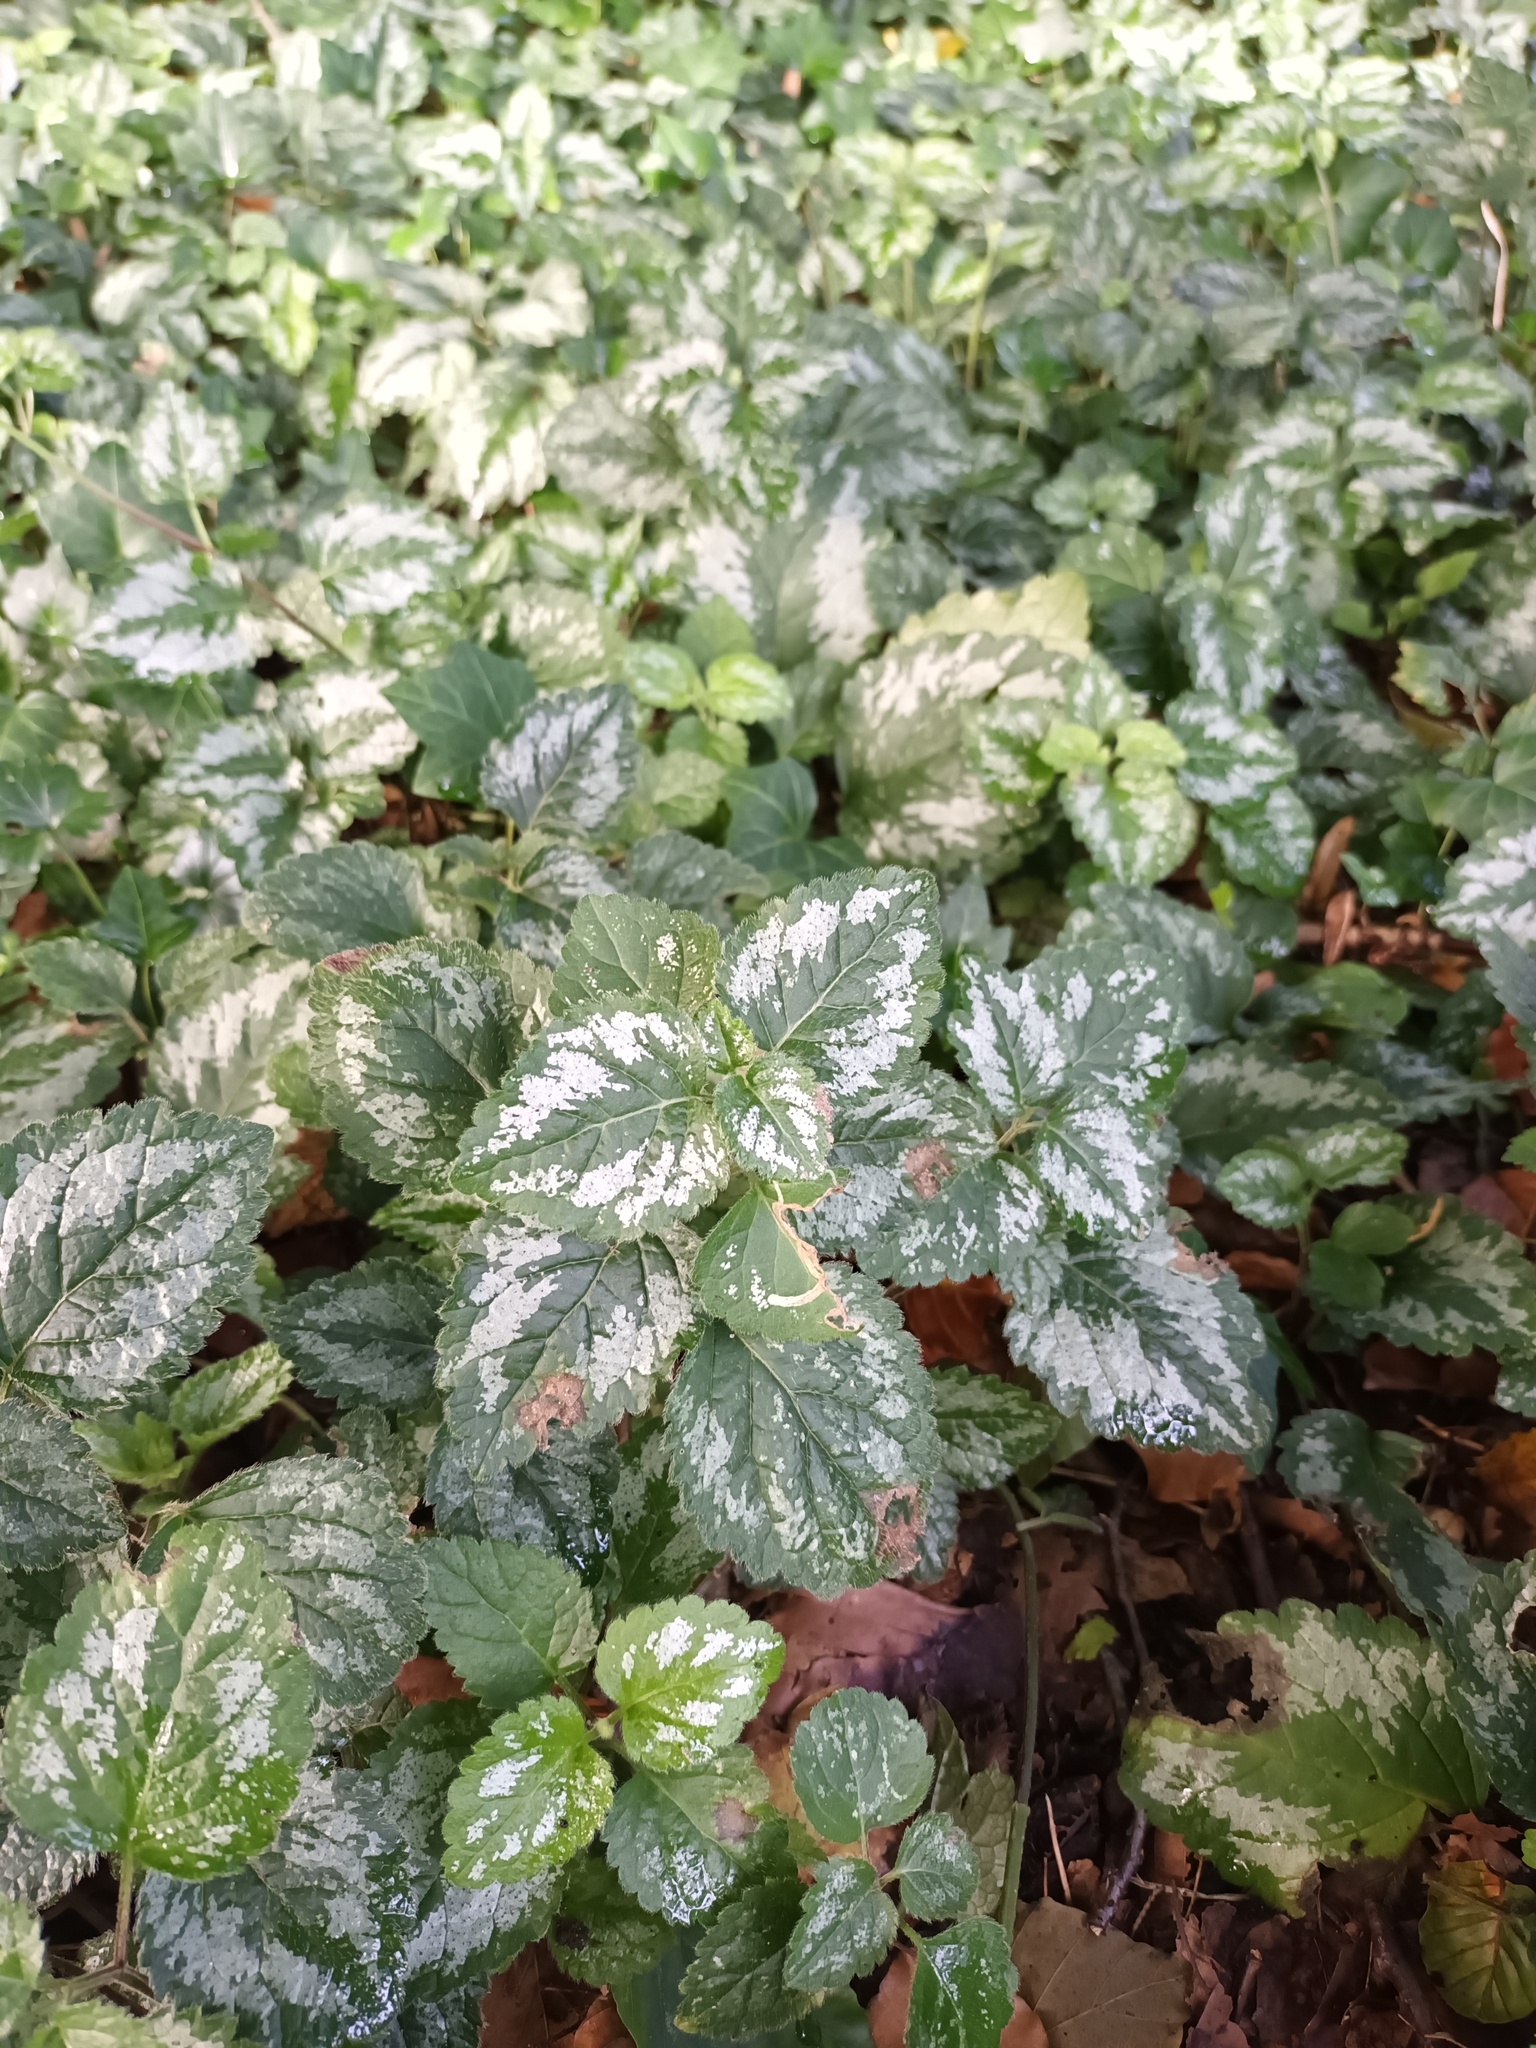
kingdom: Plantae
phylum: Tracheophyta
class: Magnoliopsida
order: Lamiales
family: Lamiaceae
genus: Lamium
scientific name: Lamium galeobdolon
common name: Yellow archangel
